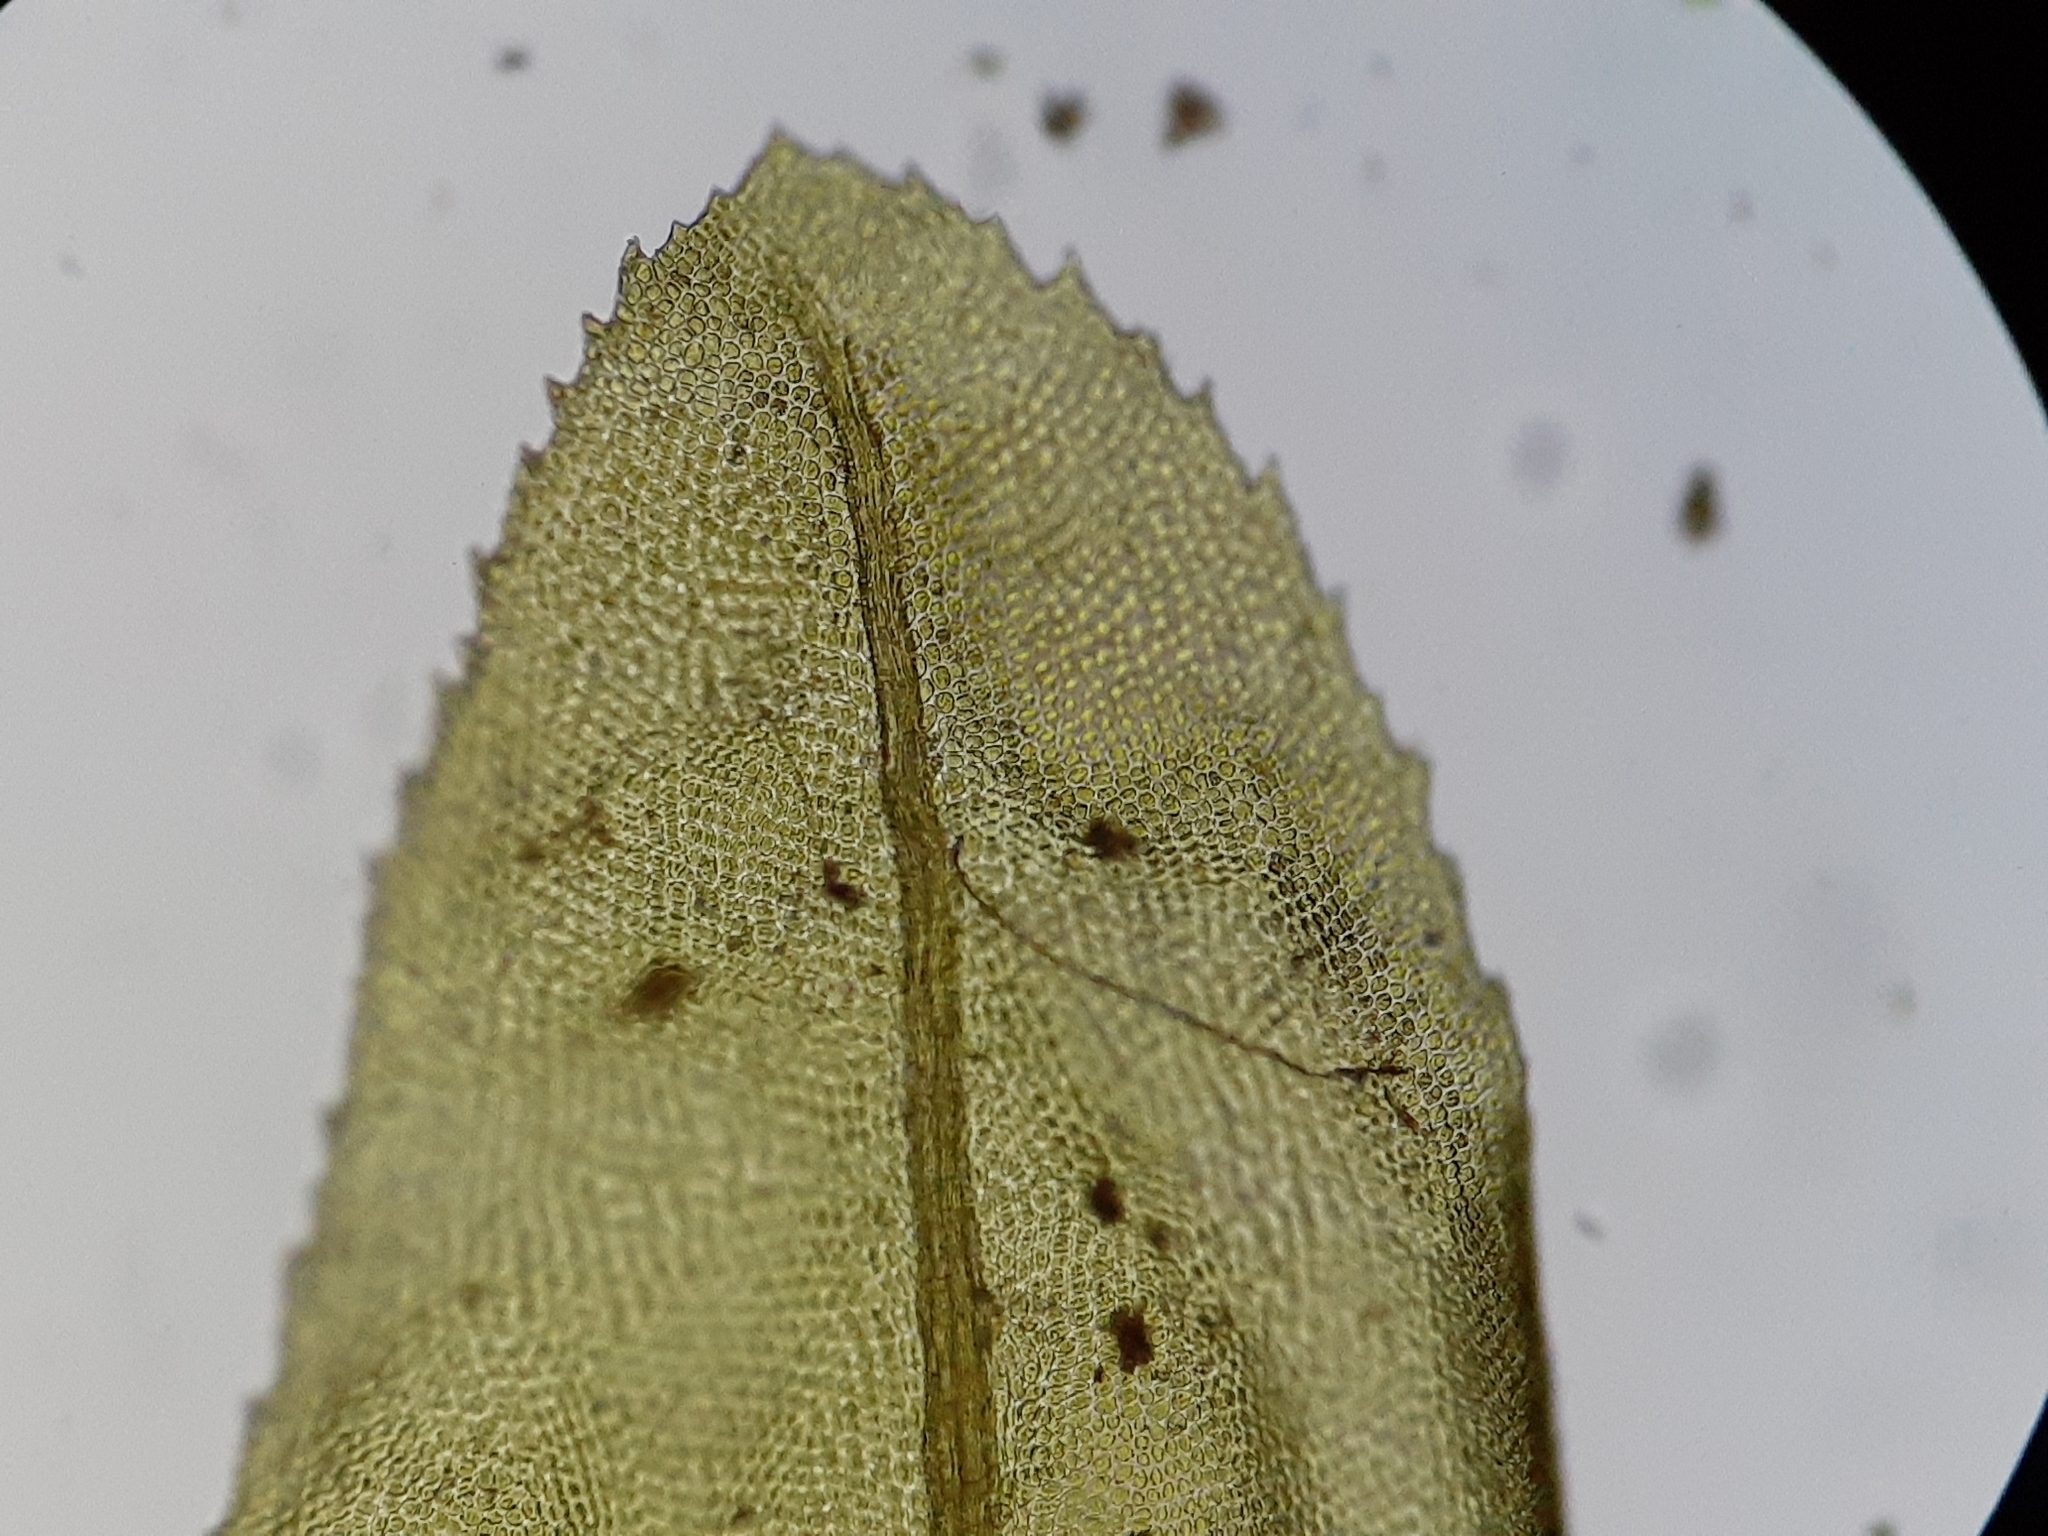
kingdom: Plantae
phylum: Bryophyta
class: Bryopsida
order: Aulacomniales
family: Aulacomniaceae
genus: Aulacomnium
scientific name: Aulacomnium heterostichum
